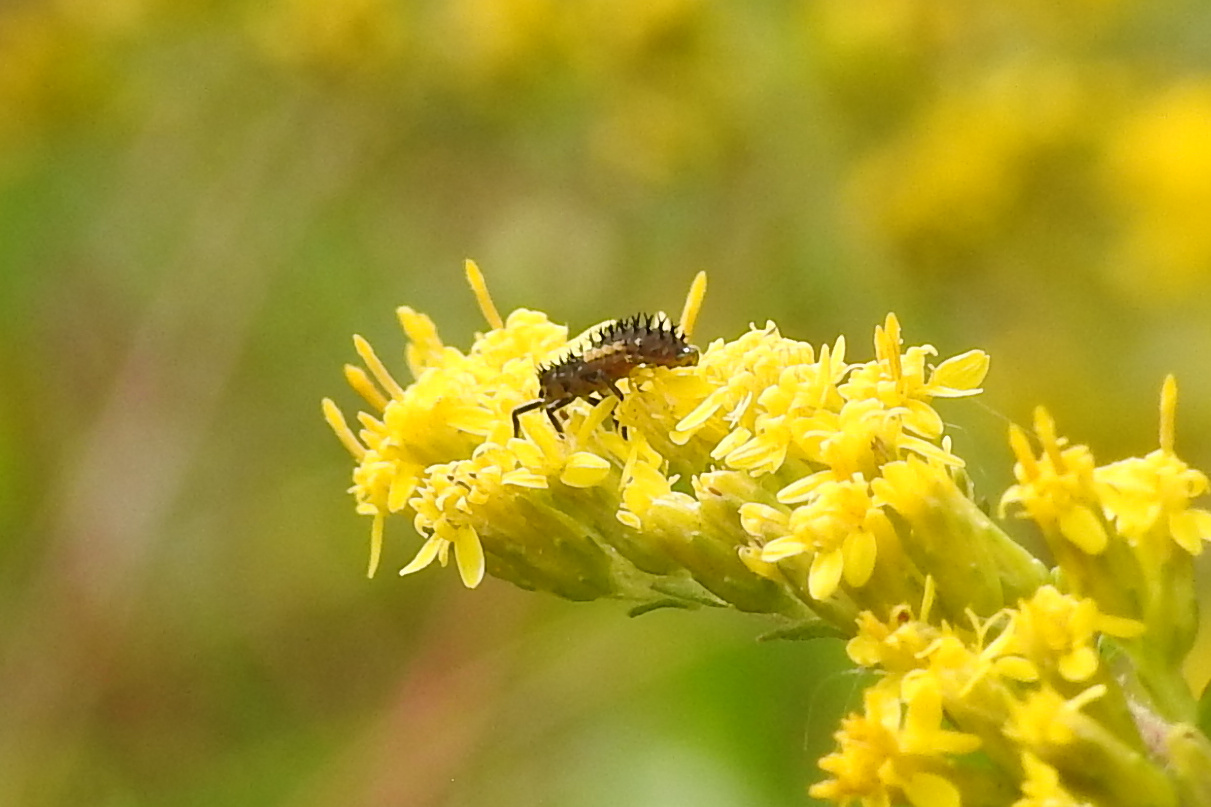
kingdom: Animalia
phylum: Arthropoda
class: Insecta
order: Coleoptera
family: Coccinellidae
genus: Harmonia
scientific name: Harmonia axyridis
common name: Harlequin ladybird
